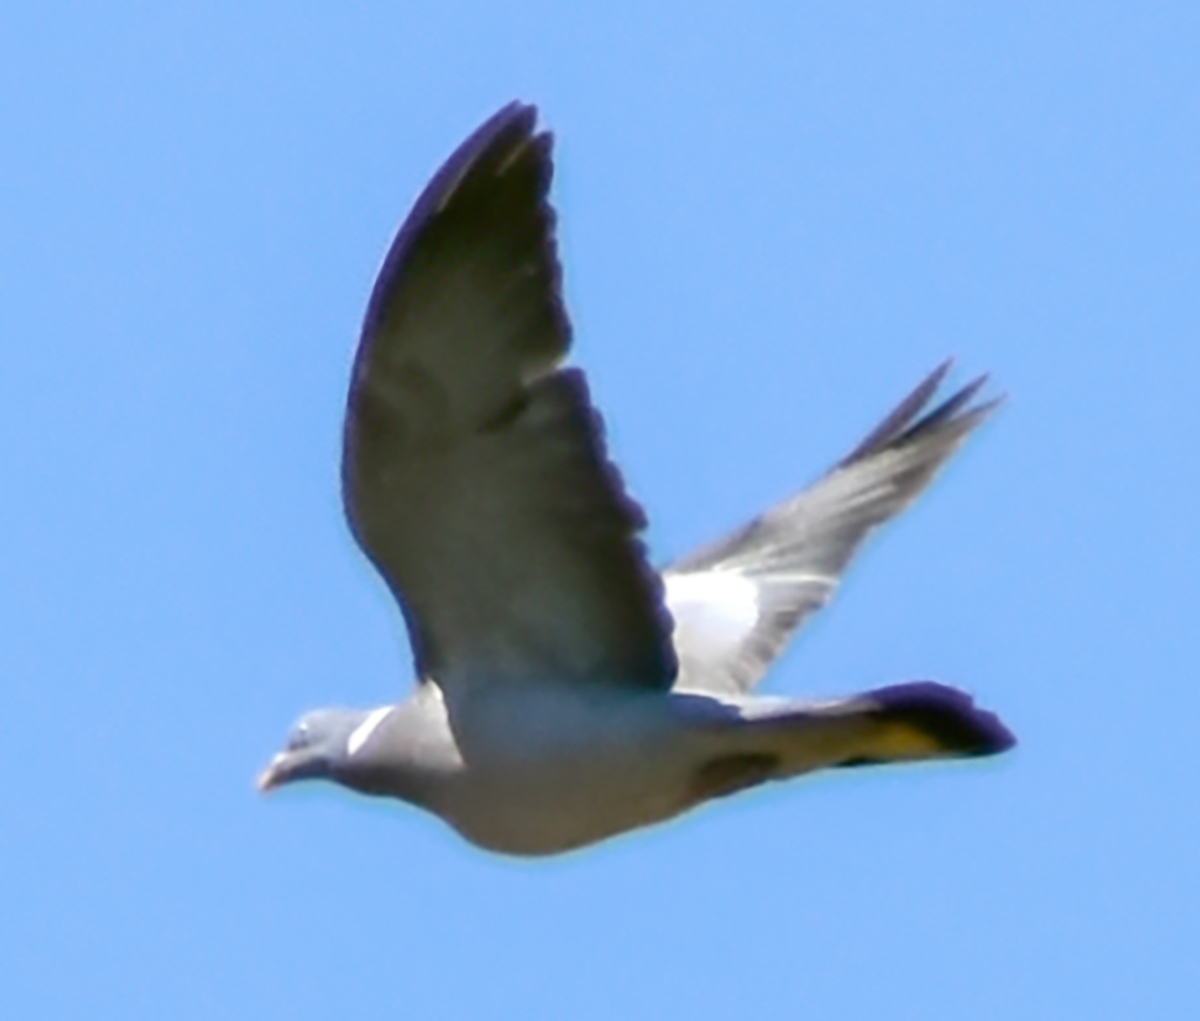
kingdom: Animalia
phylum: Chordata
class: Aves
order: Columbiformes
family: Columbidae
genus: Columba
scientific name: Columba palumbus
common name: Common wood pigeon
